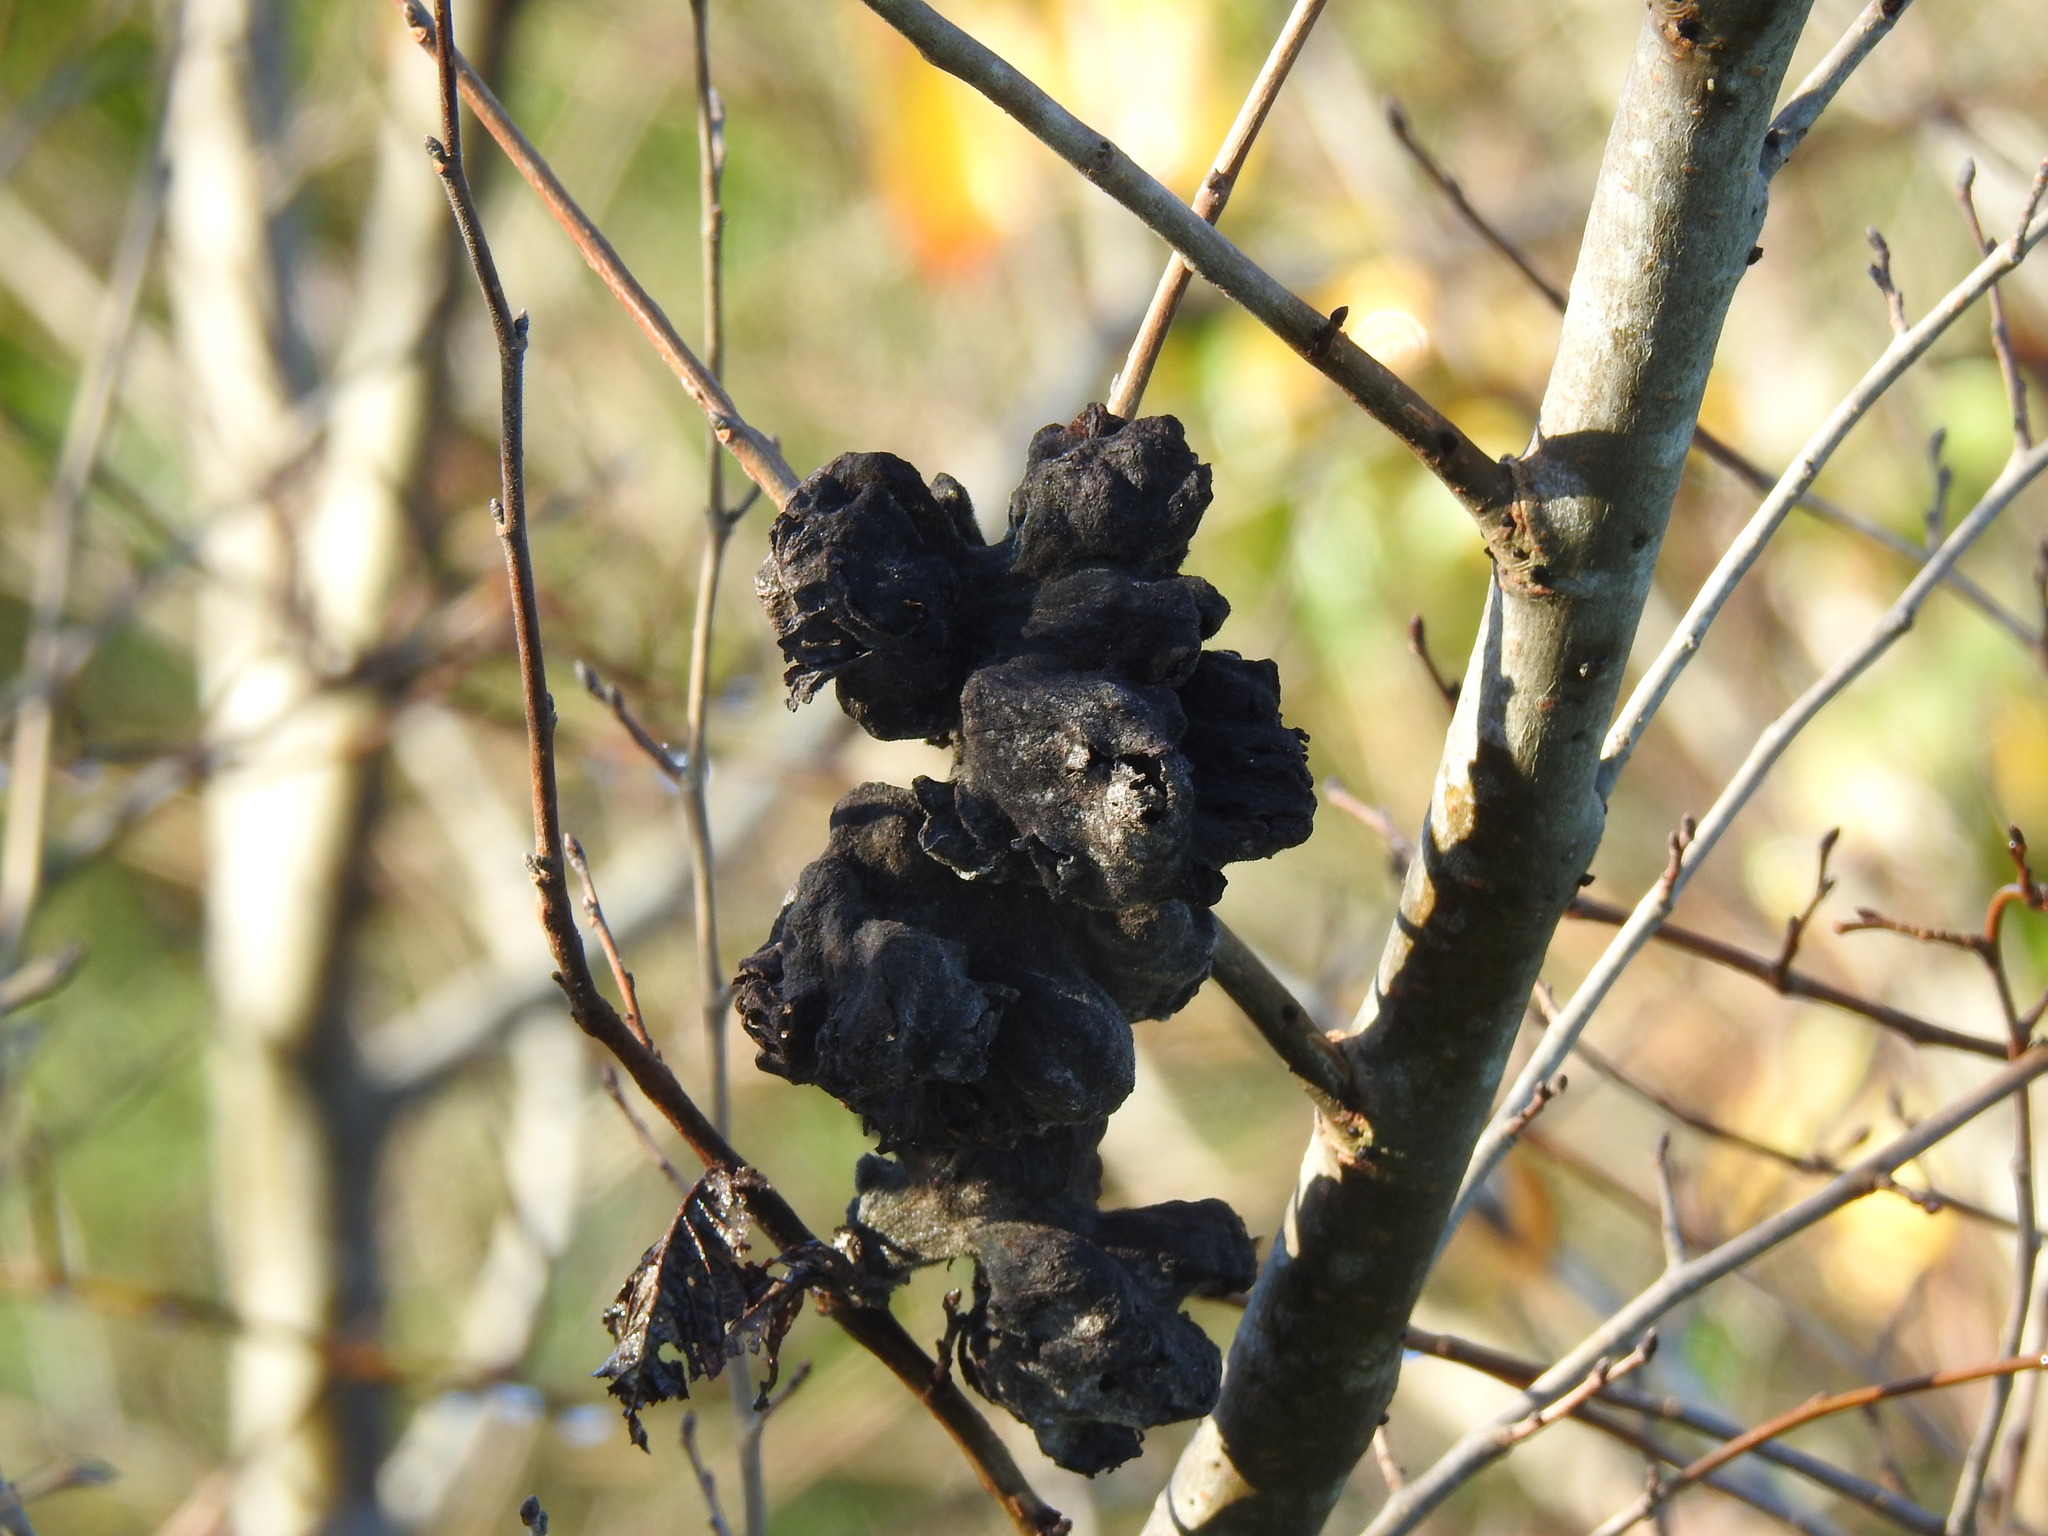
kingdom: Animalia
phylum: Arthropoda
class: Insecta
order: Hemiptera
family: Aphididae
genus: Eriosoma
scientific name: Eriosoma lanuginosum
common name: Aphid
